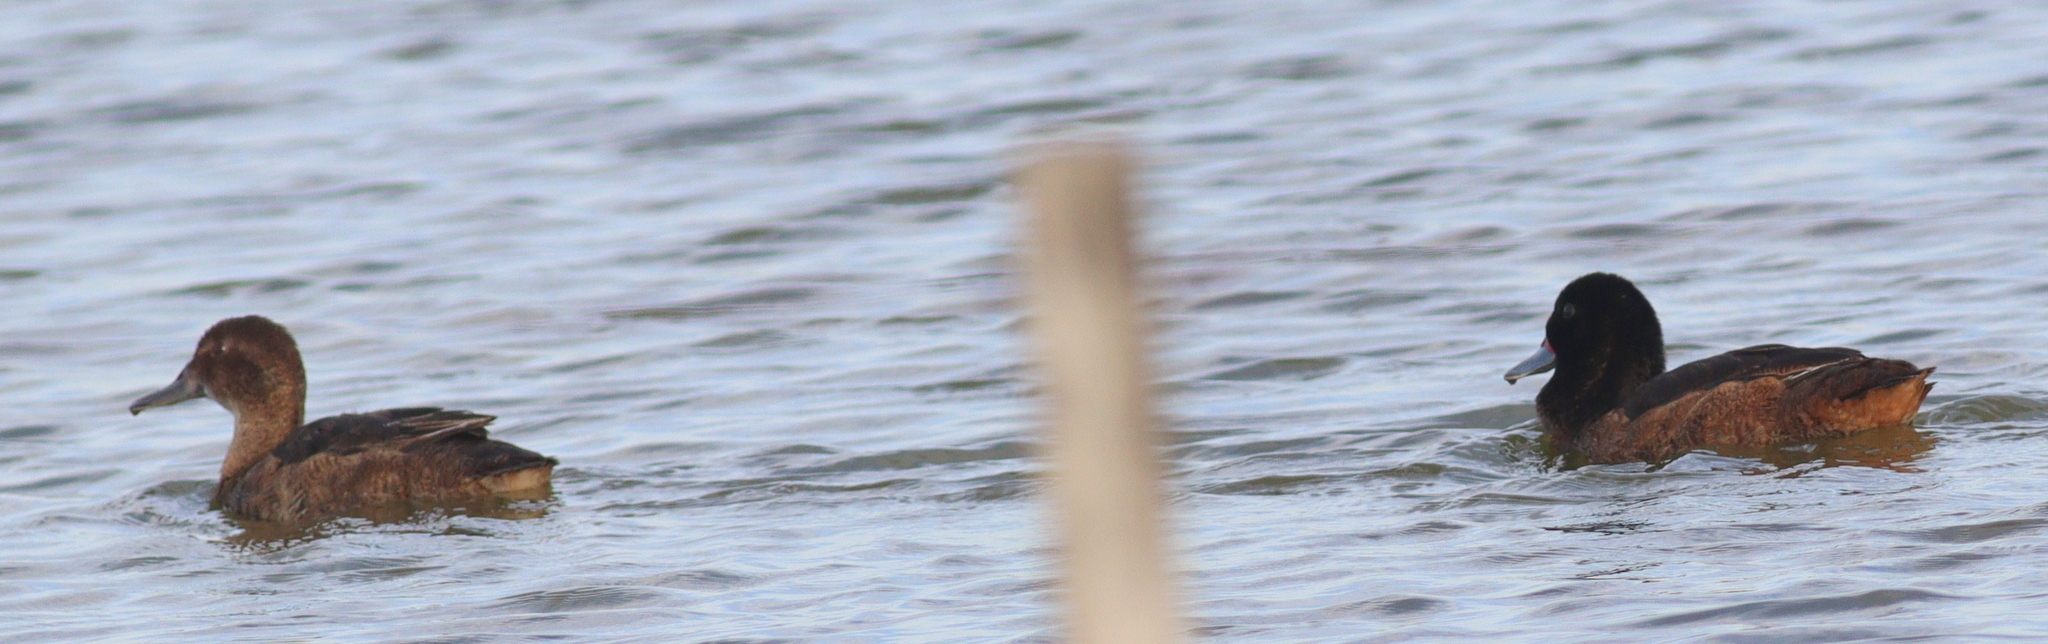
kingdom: Animalia
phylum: Chordata
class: Aves
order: Anseriformes
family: Anatidae
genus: Heteronetta
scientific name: Heteronetta atricapilla
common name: Black-headed duck
